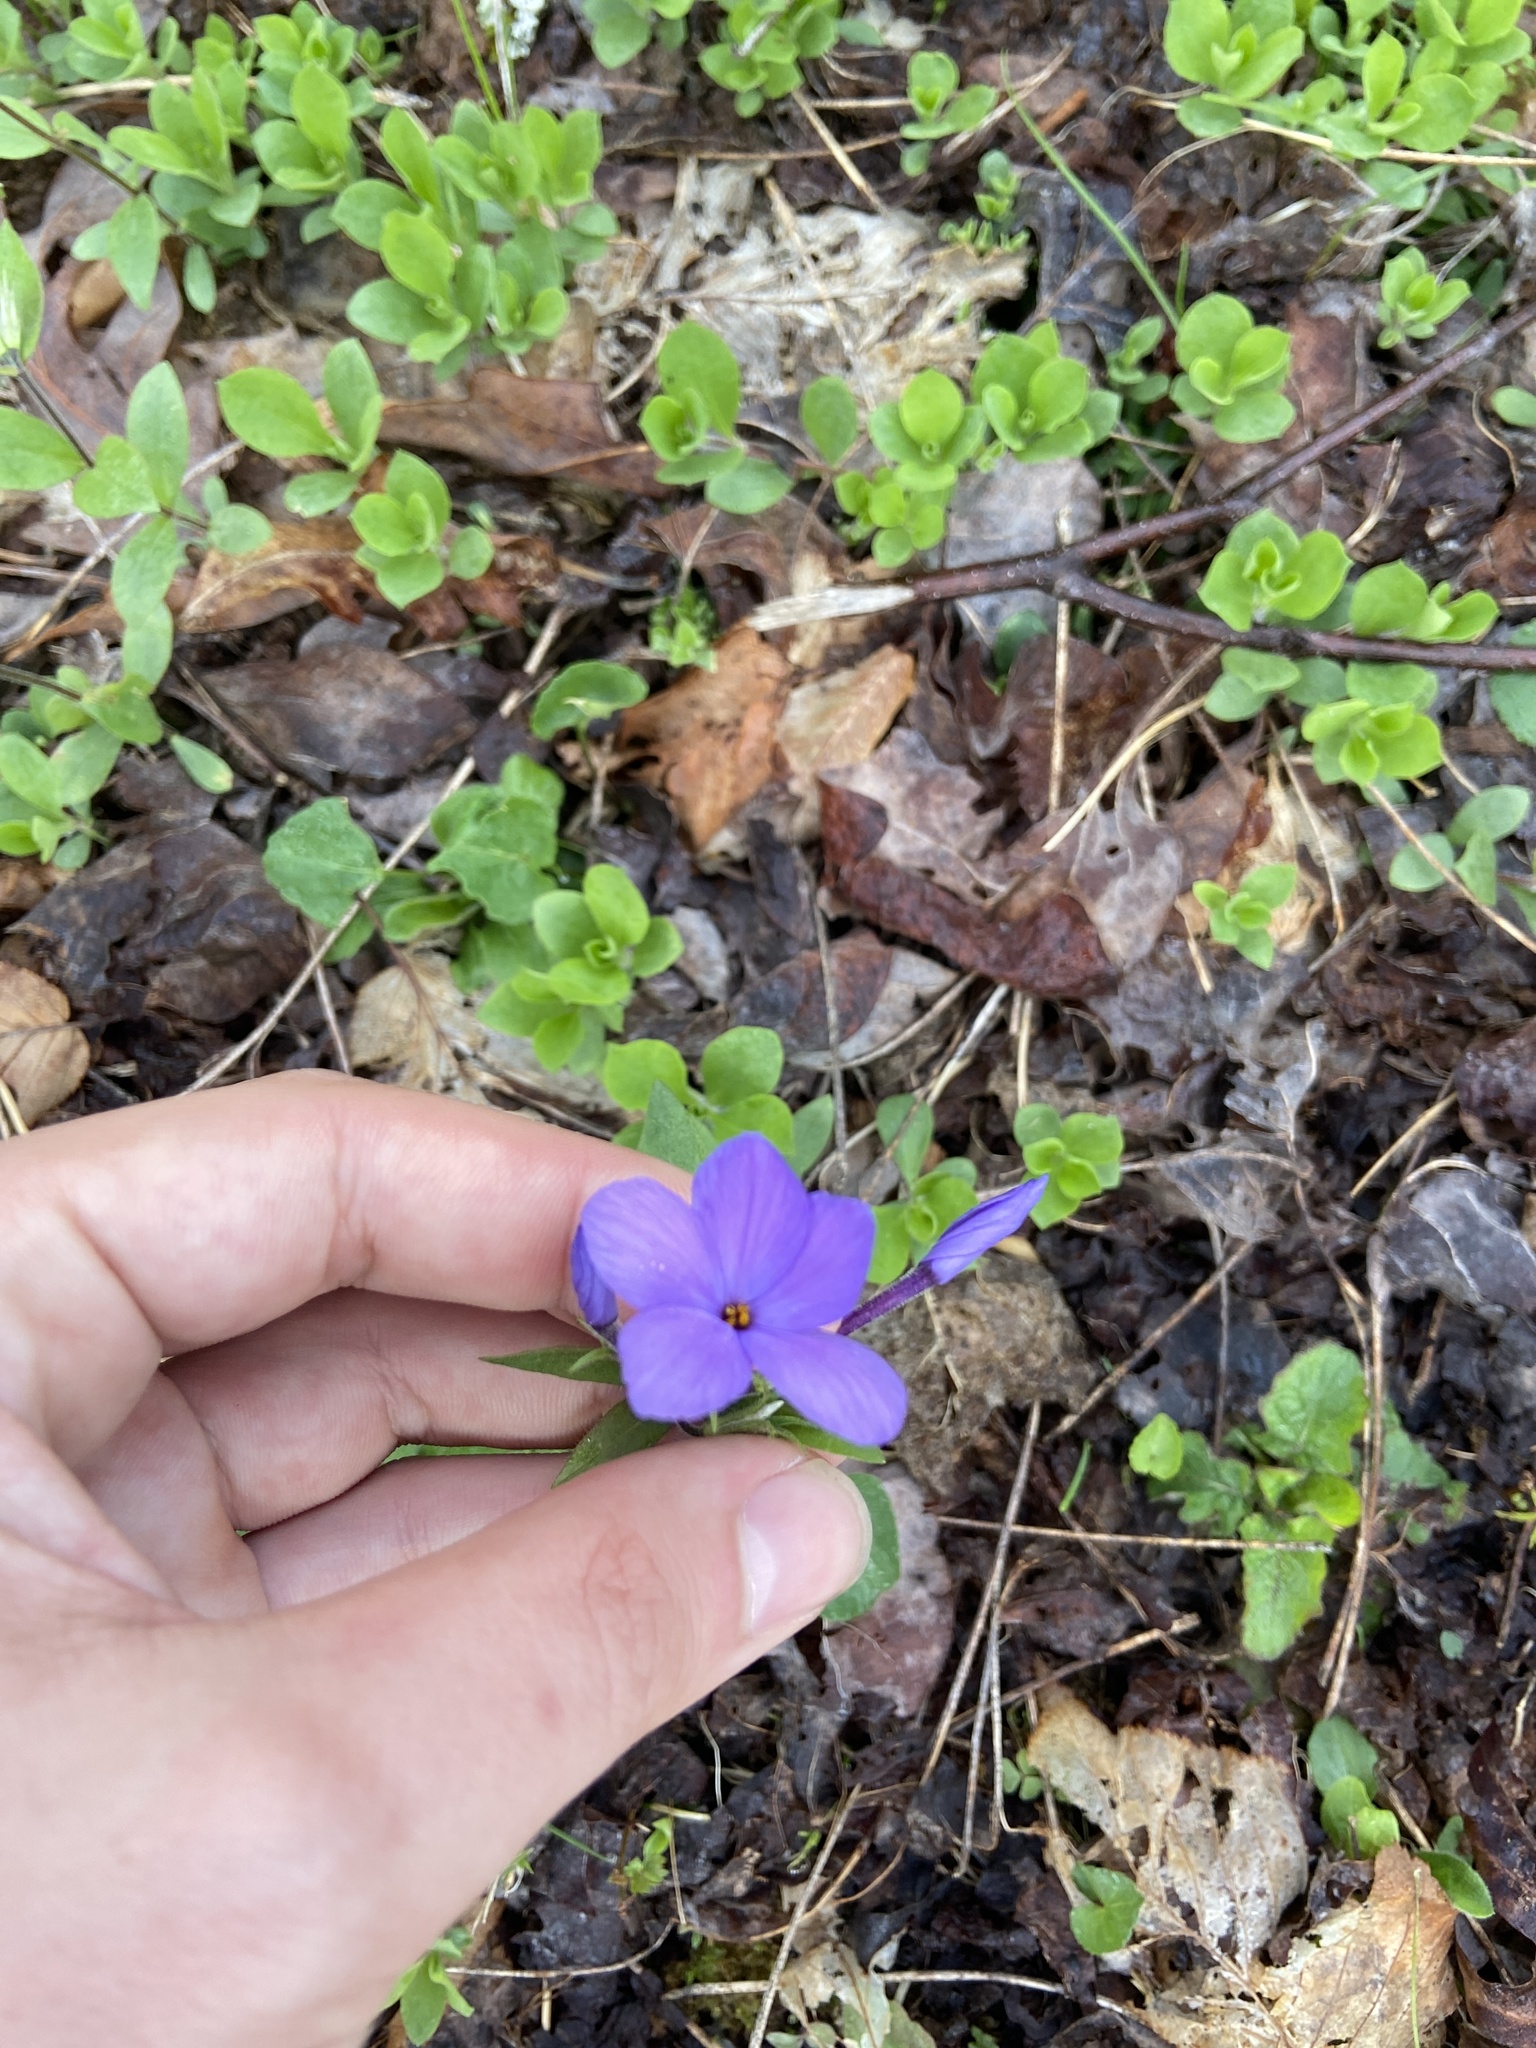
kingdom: Plantae
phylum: Tracheophyta
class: Magnoliopsida
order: Ericales
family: Polemoniaceae
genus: Phlox
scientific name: Phlox stolonifera
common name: Creeping phlox
